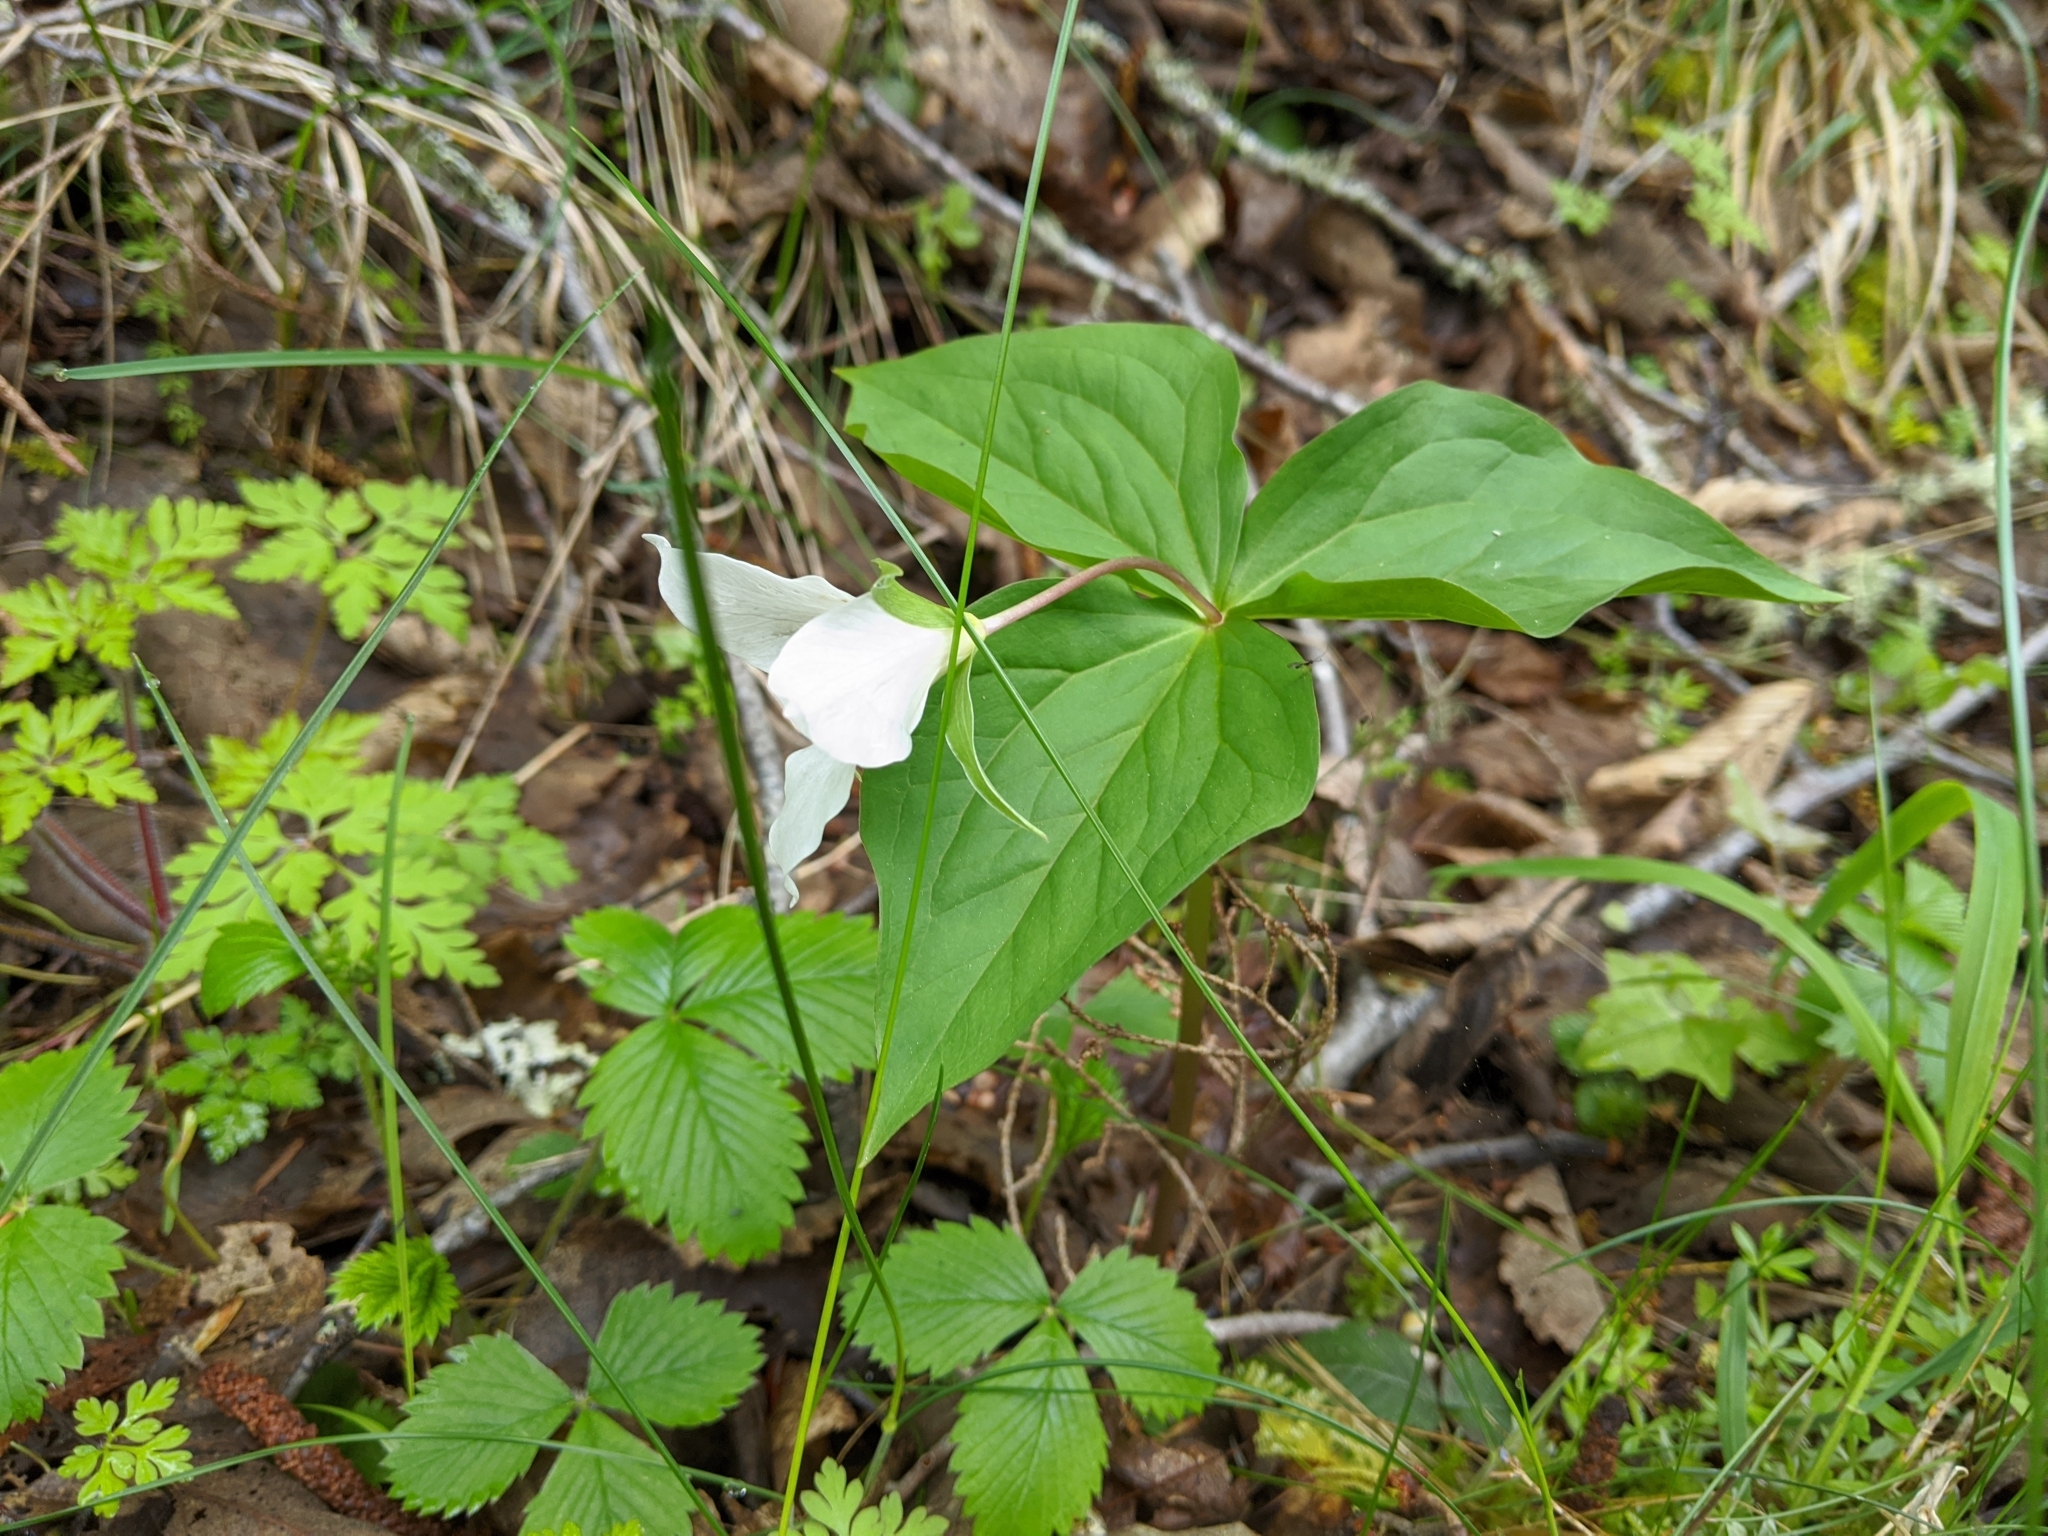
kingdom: Plantae
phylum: Tracheophyta
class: Liliopsida
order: Liliales
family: Melanthiaceae
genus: Trillium
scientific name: Trillium ovatum
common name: Pacific trillium
